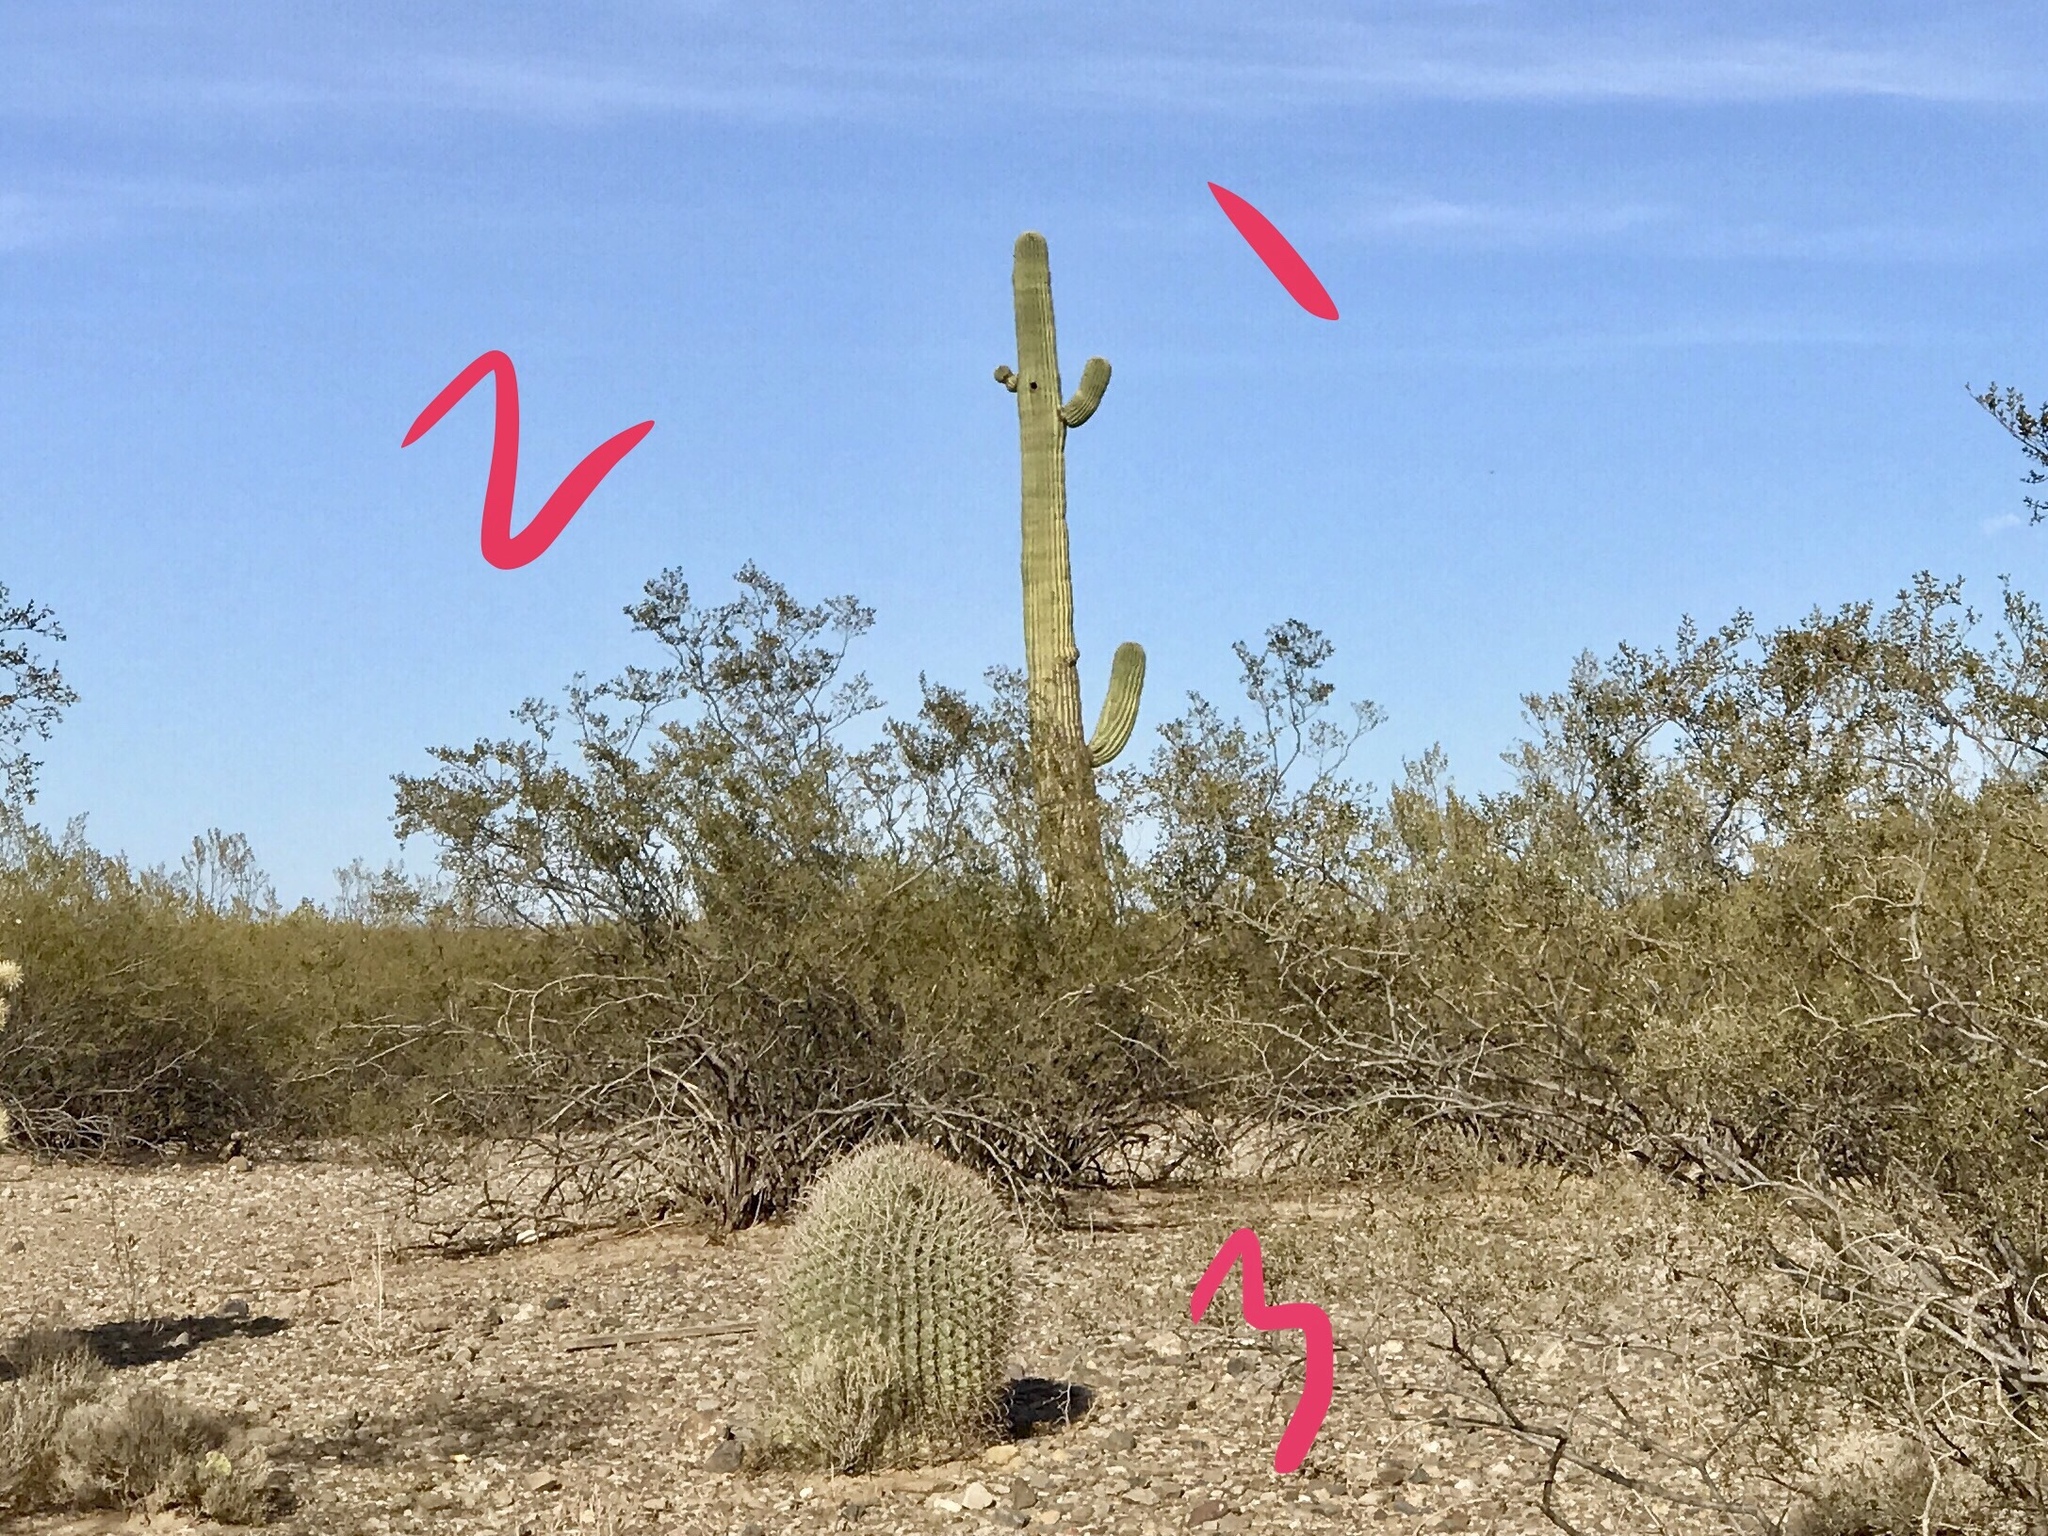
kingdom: Plantae
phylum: Tracheophyta
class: Magnoliopsida
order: Caryophyllales
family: Cactaceae
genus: Ferocactus
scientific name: Ferocactus wislizeni
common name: Candy barrel cactus
